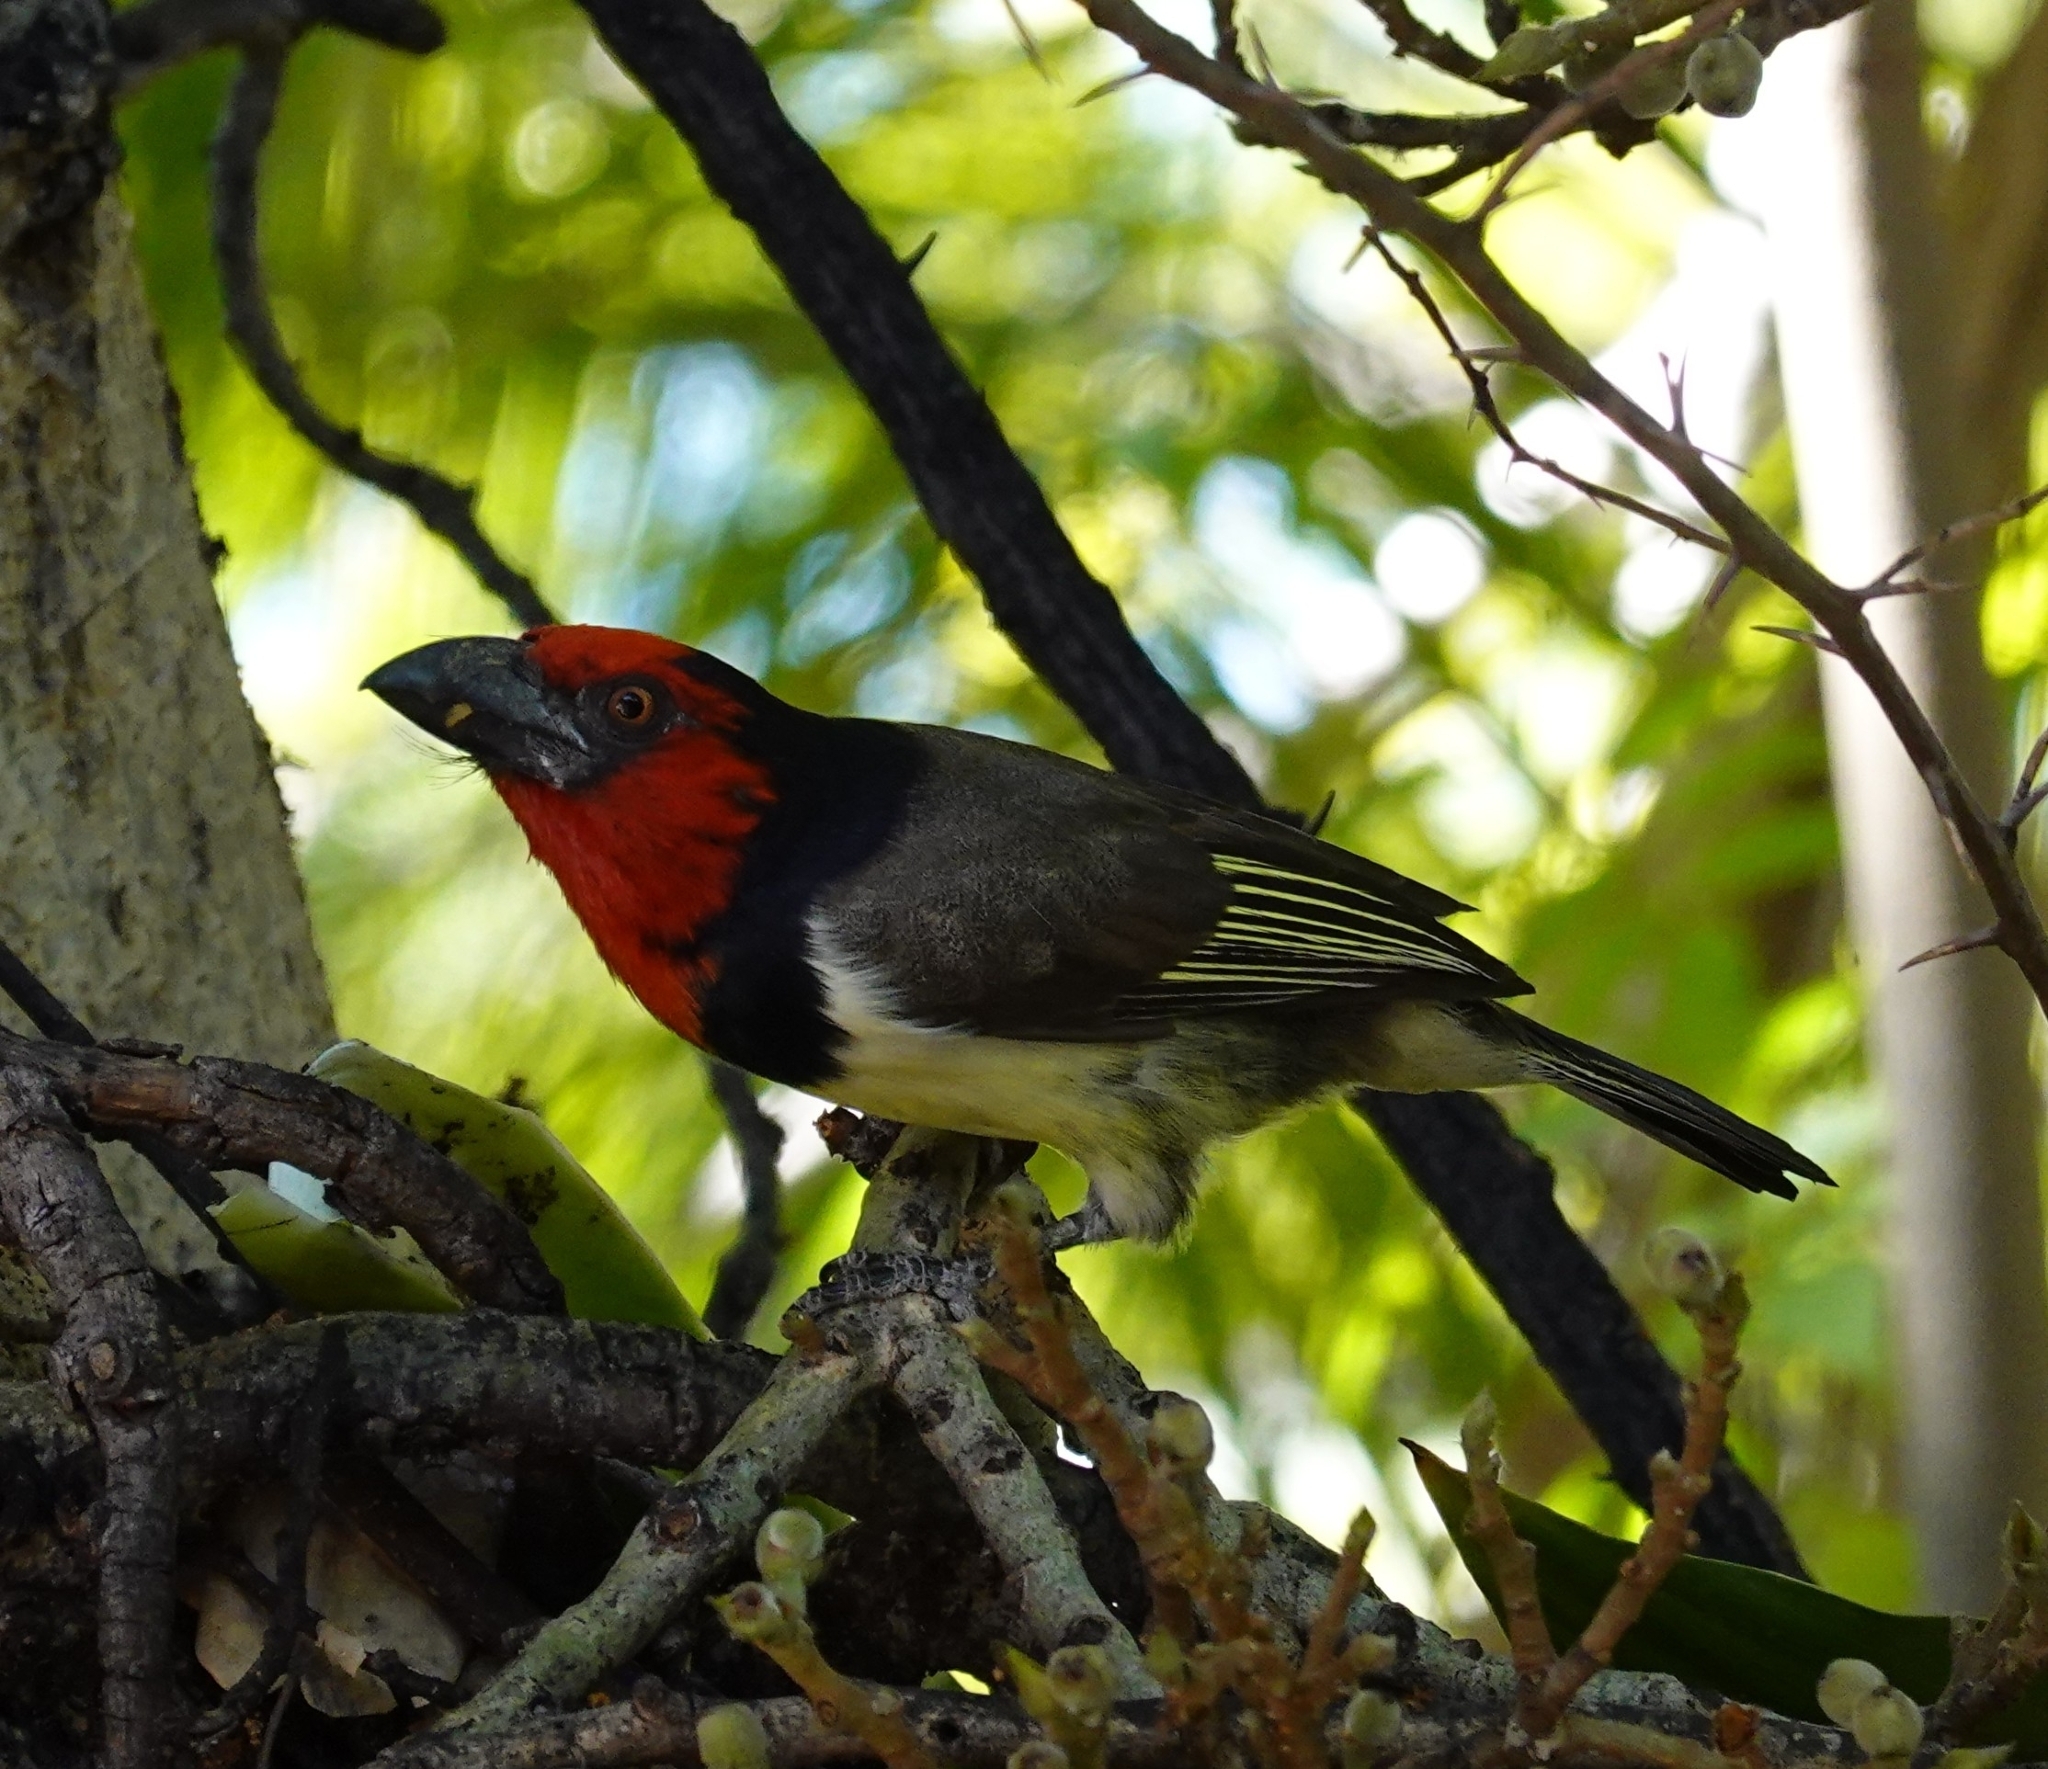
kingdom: Animalia
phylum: Chordata
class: Aves
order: Piciformes
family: Lybiidae
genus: Lybius
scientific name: Lybius torquatus
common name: Black-collared barbet
